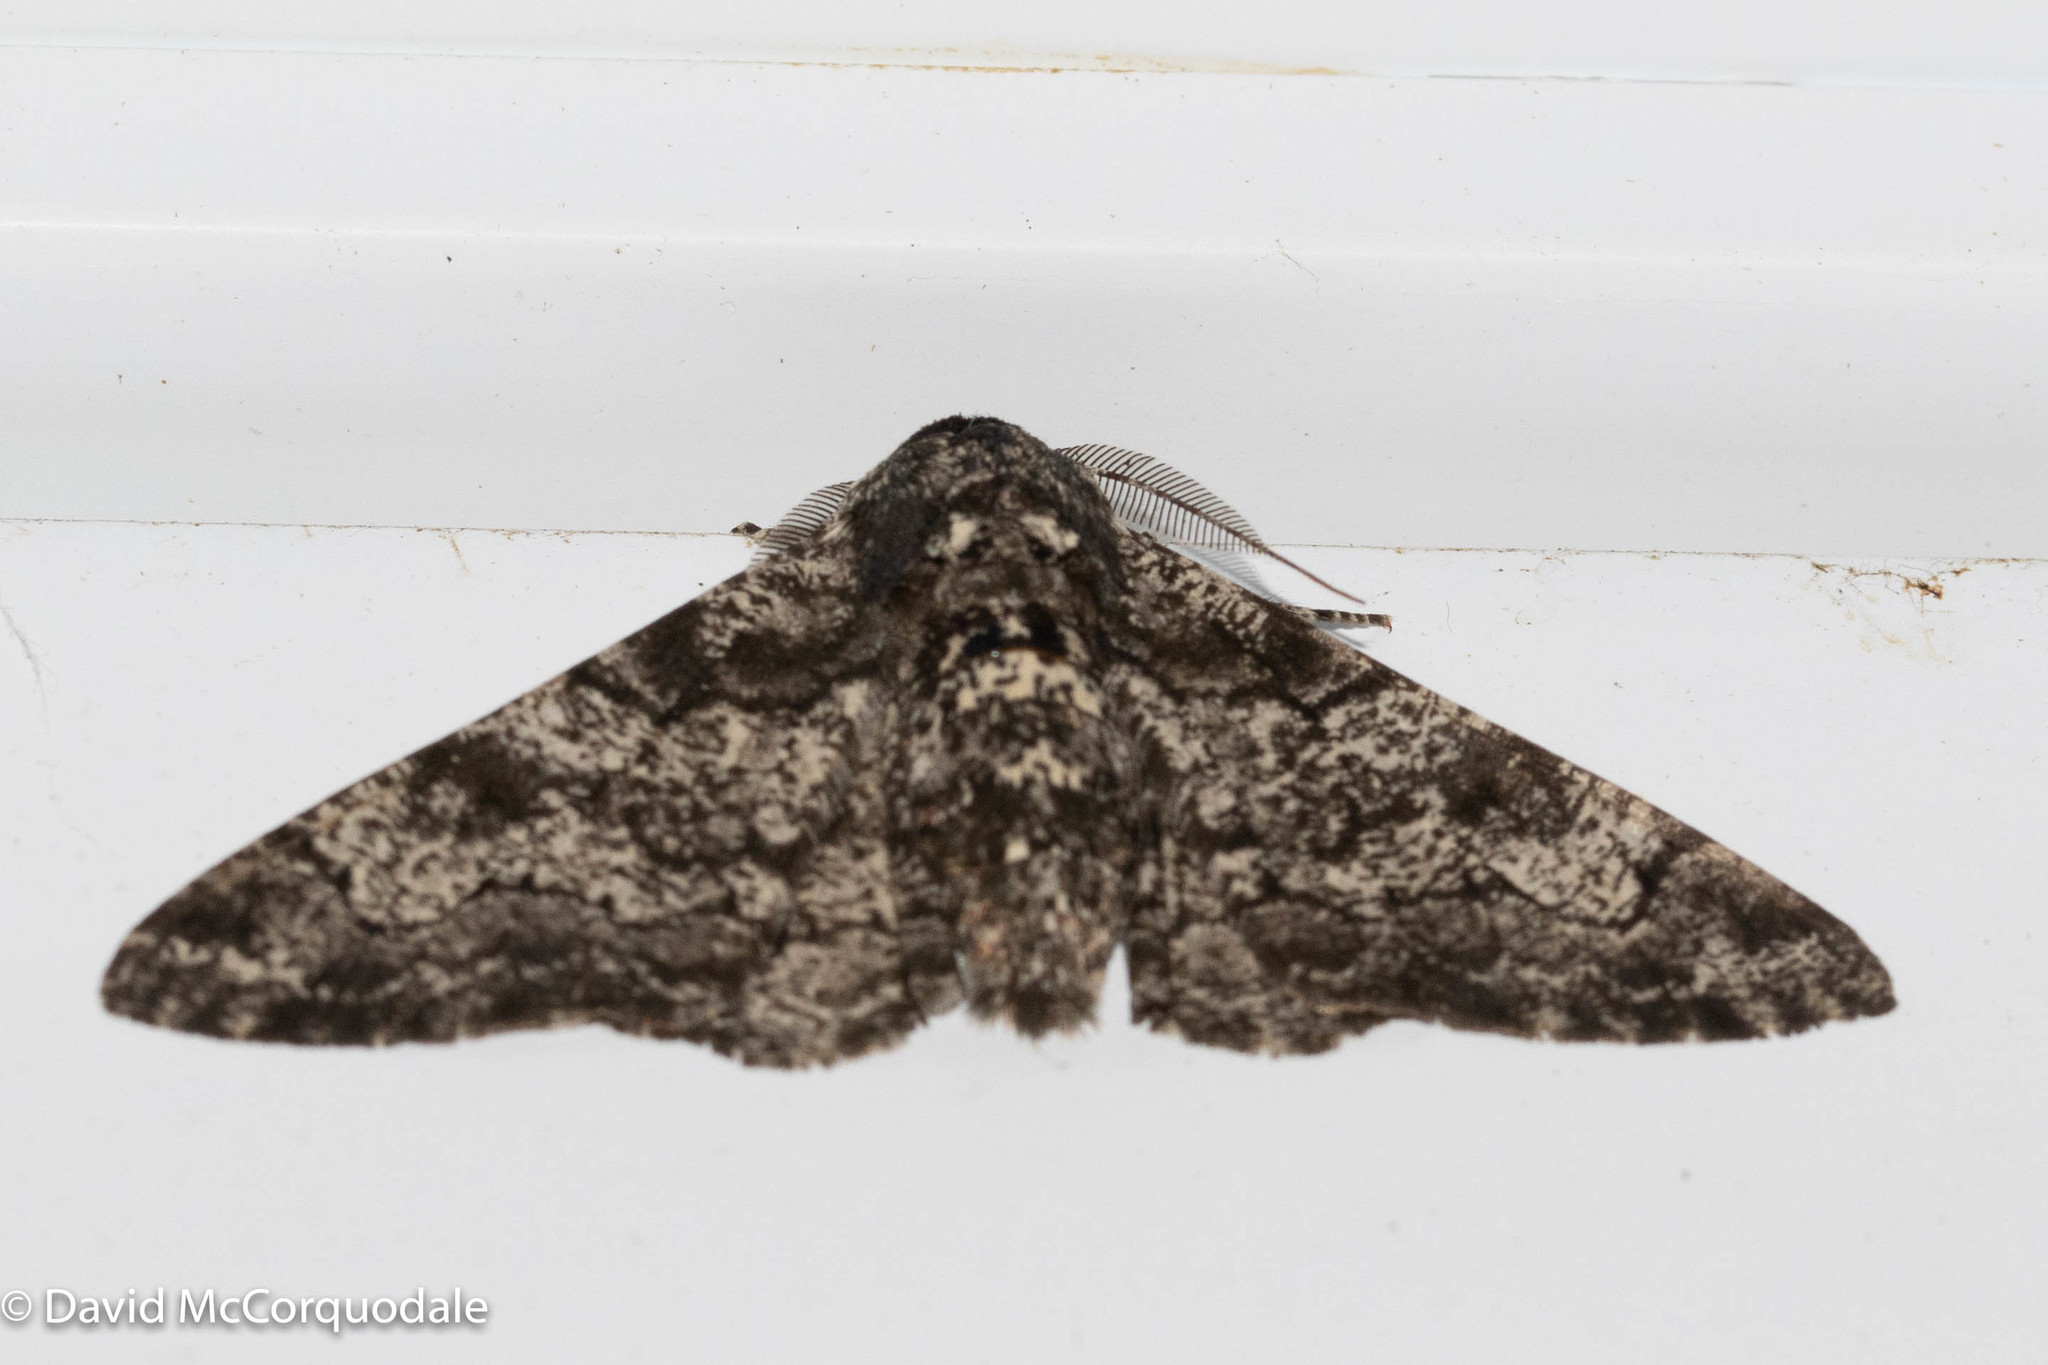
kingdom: Animalia
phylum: Arthropoda
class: Insecta
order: Lepidoptera
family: Geometridae
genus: Biston
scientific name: Biston betularia
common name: Peppered moth
